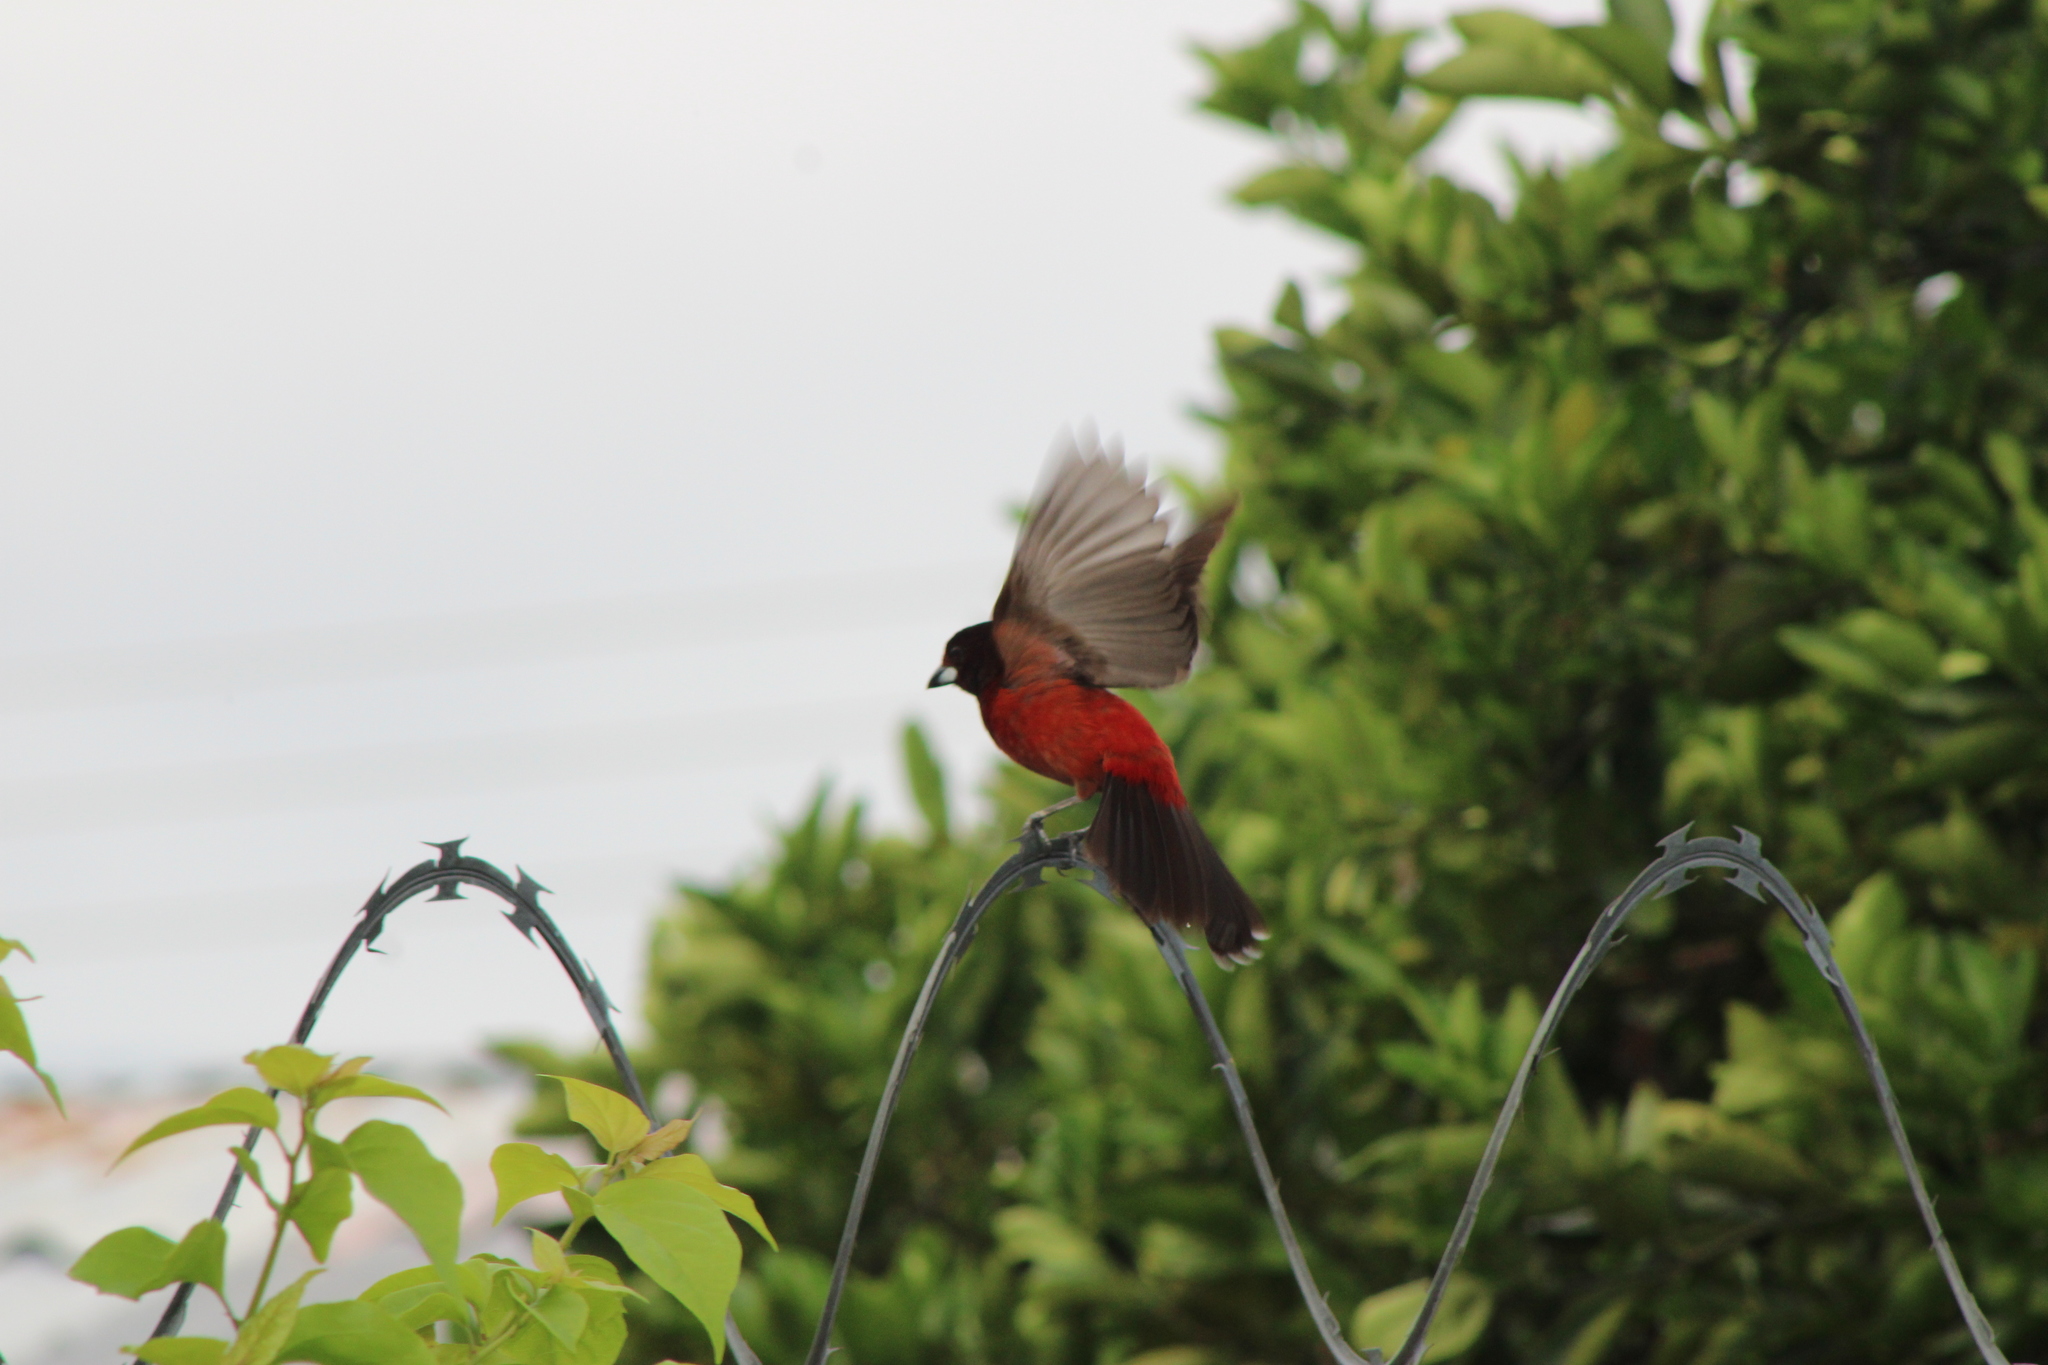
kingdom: Animalia
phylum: Chordata
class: Aves
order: Passeriformes
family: Thraupidae
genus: Ramphocelus
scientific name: Ramphocelus dimidiatus
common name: Crimson-backed tanager
